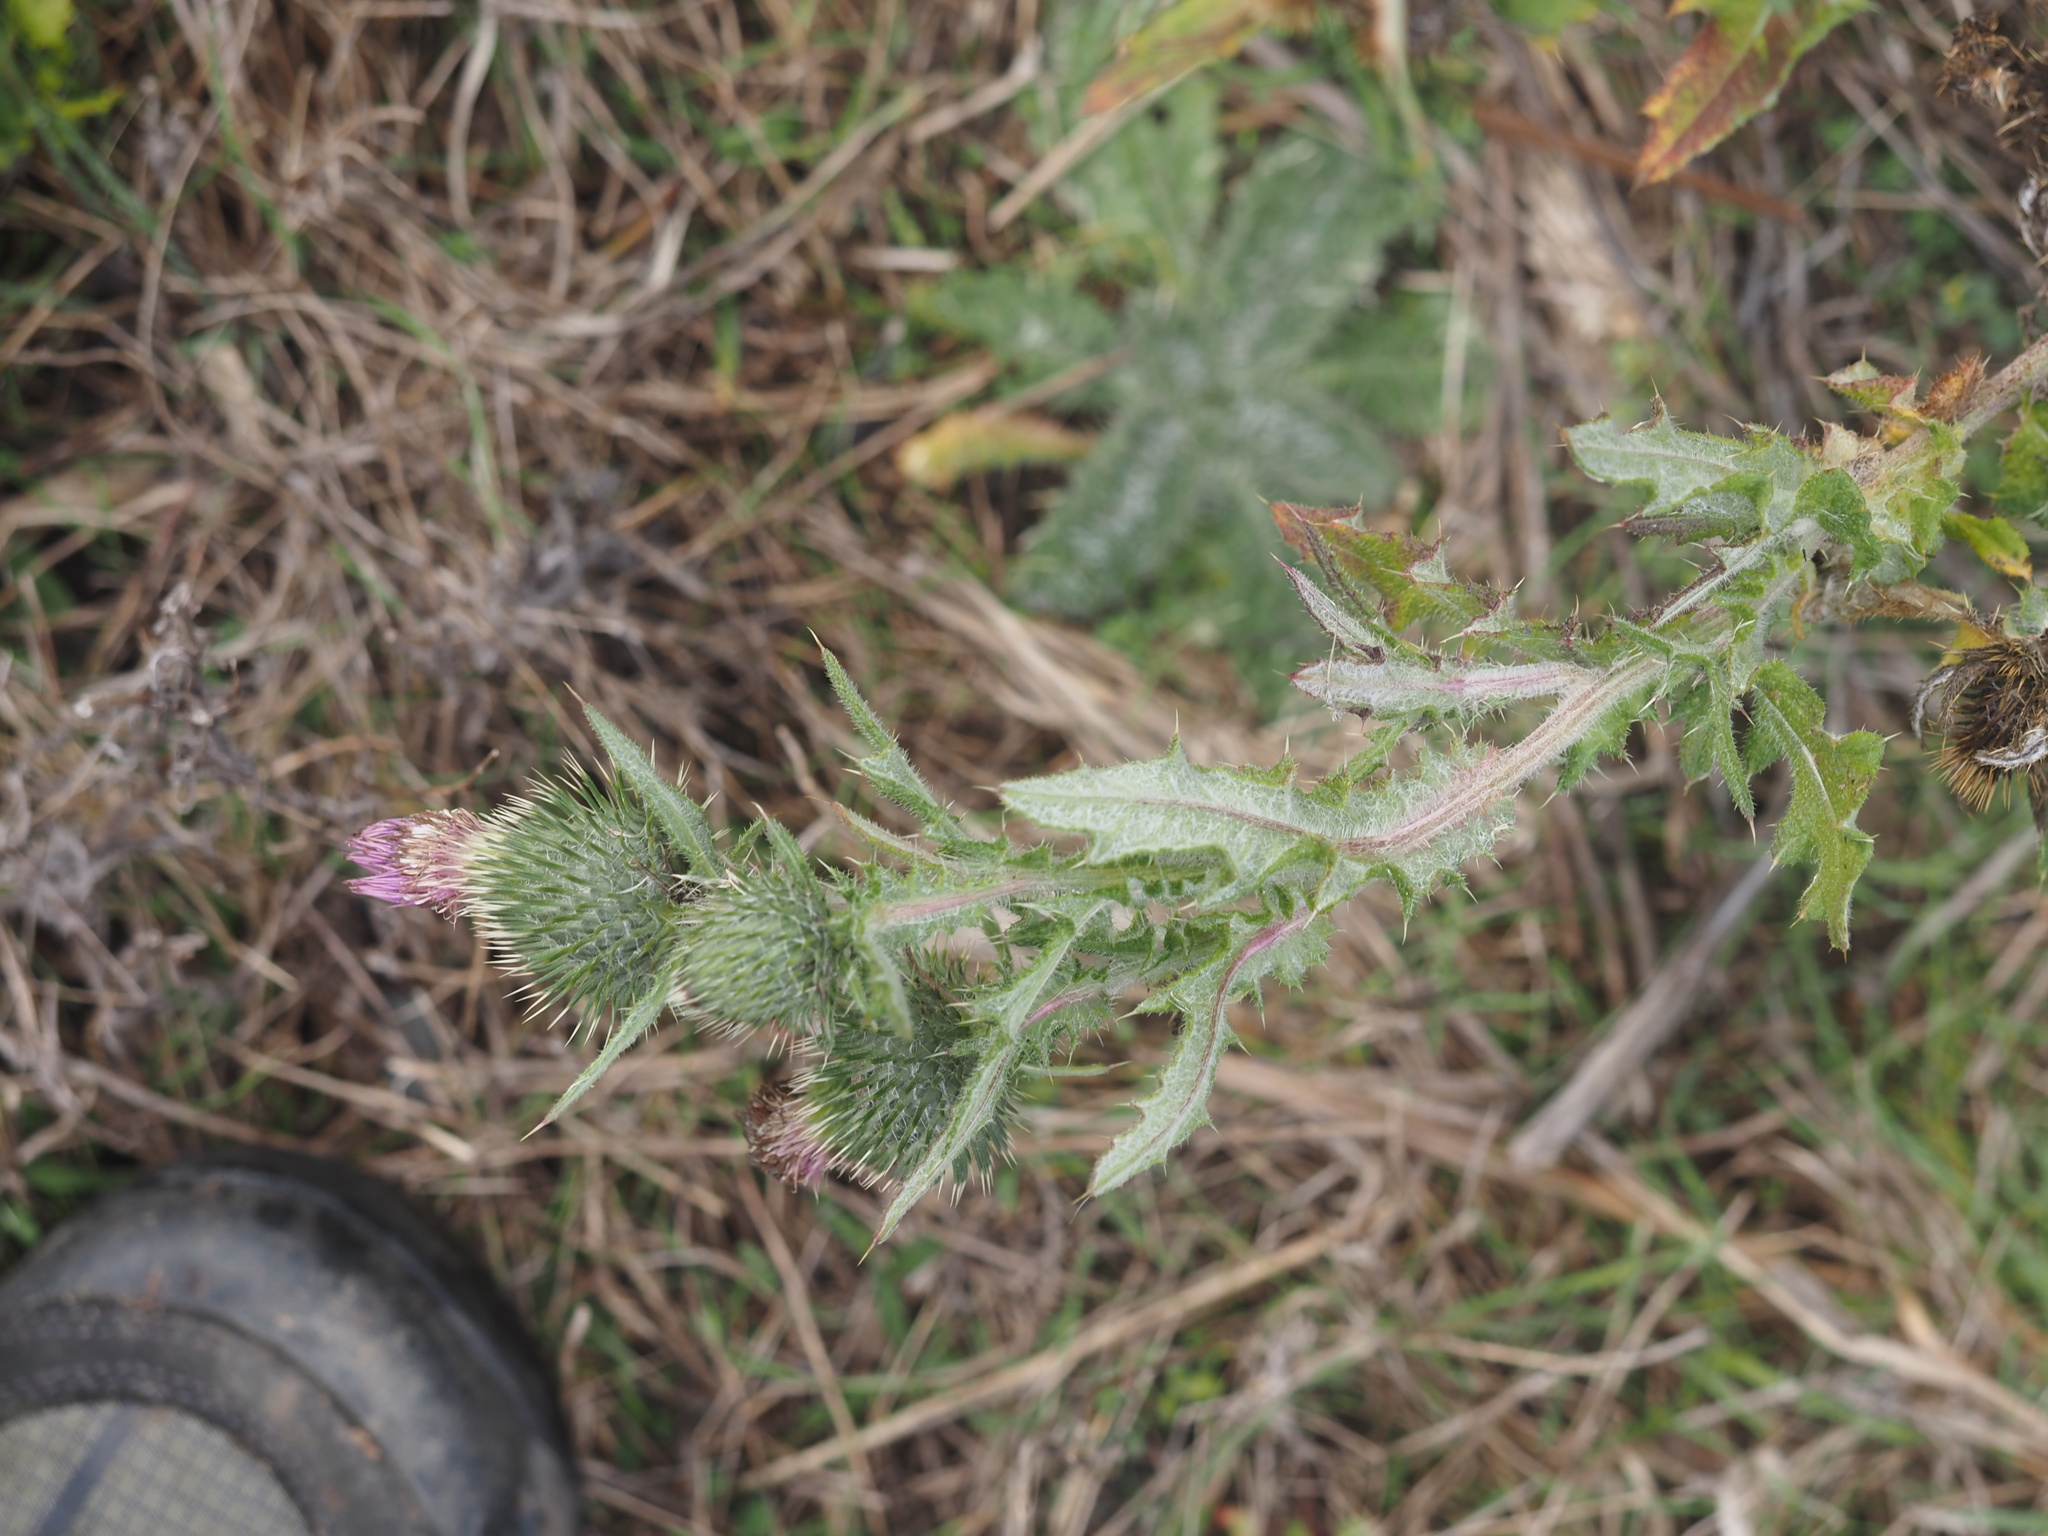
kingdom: Plantae
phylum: Tracheophyta
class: Magnoliopsida
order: Asterales
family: Asteraceae
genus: Cirsium
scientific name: Cirsium vulgare
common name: Bull thistle
